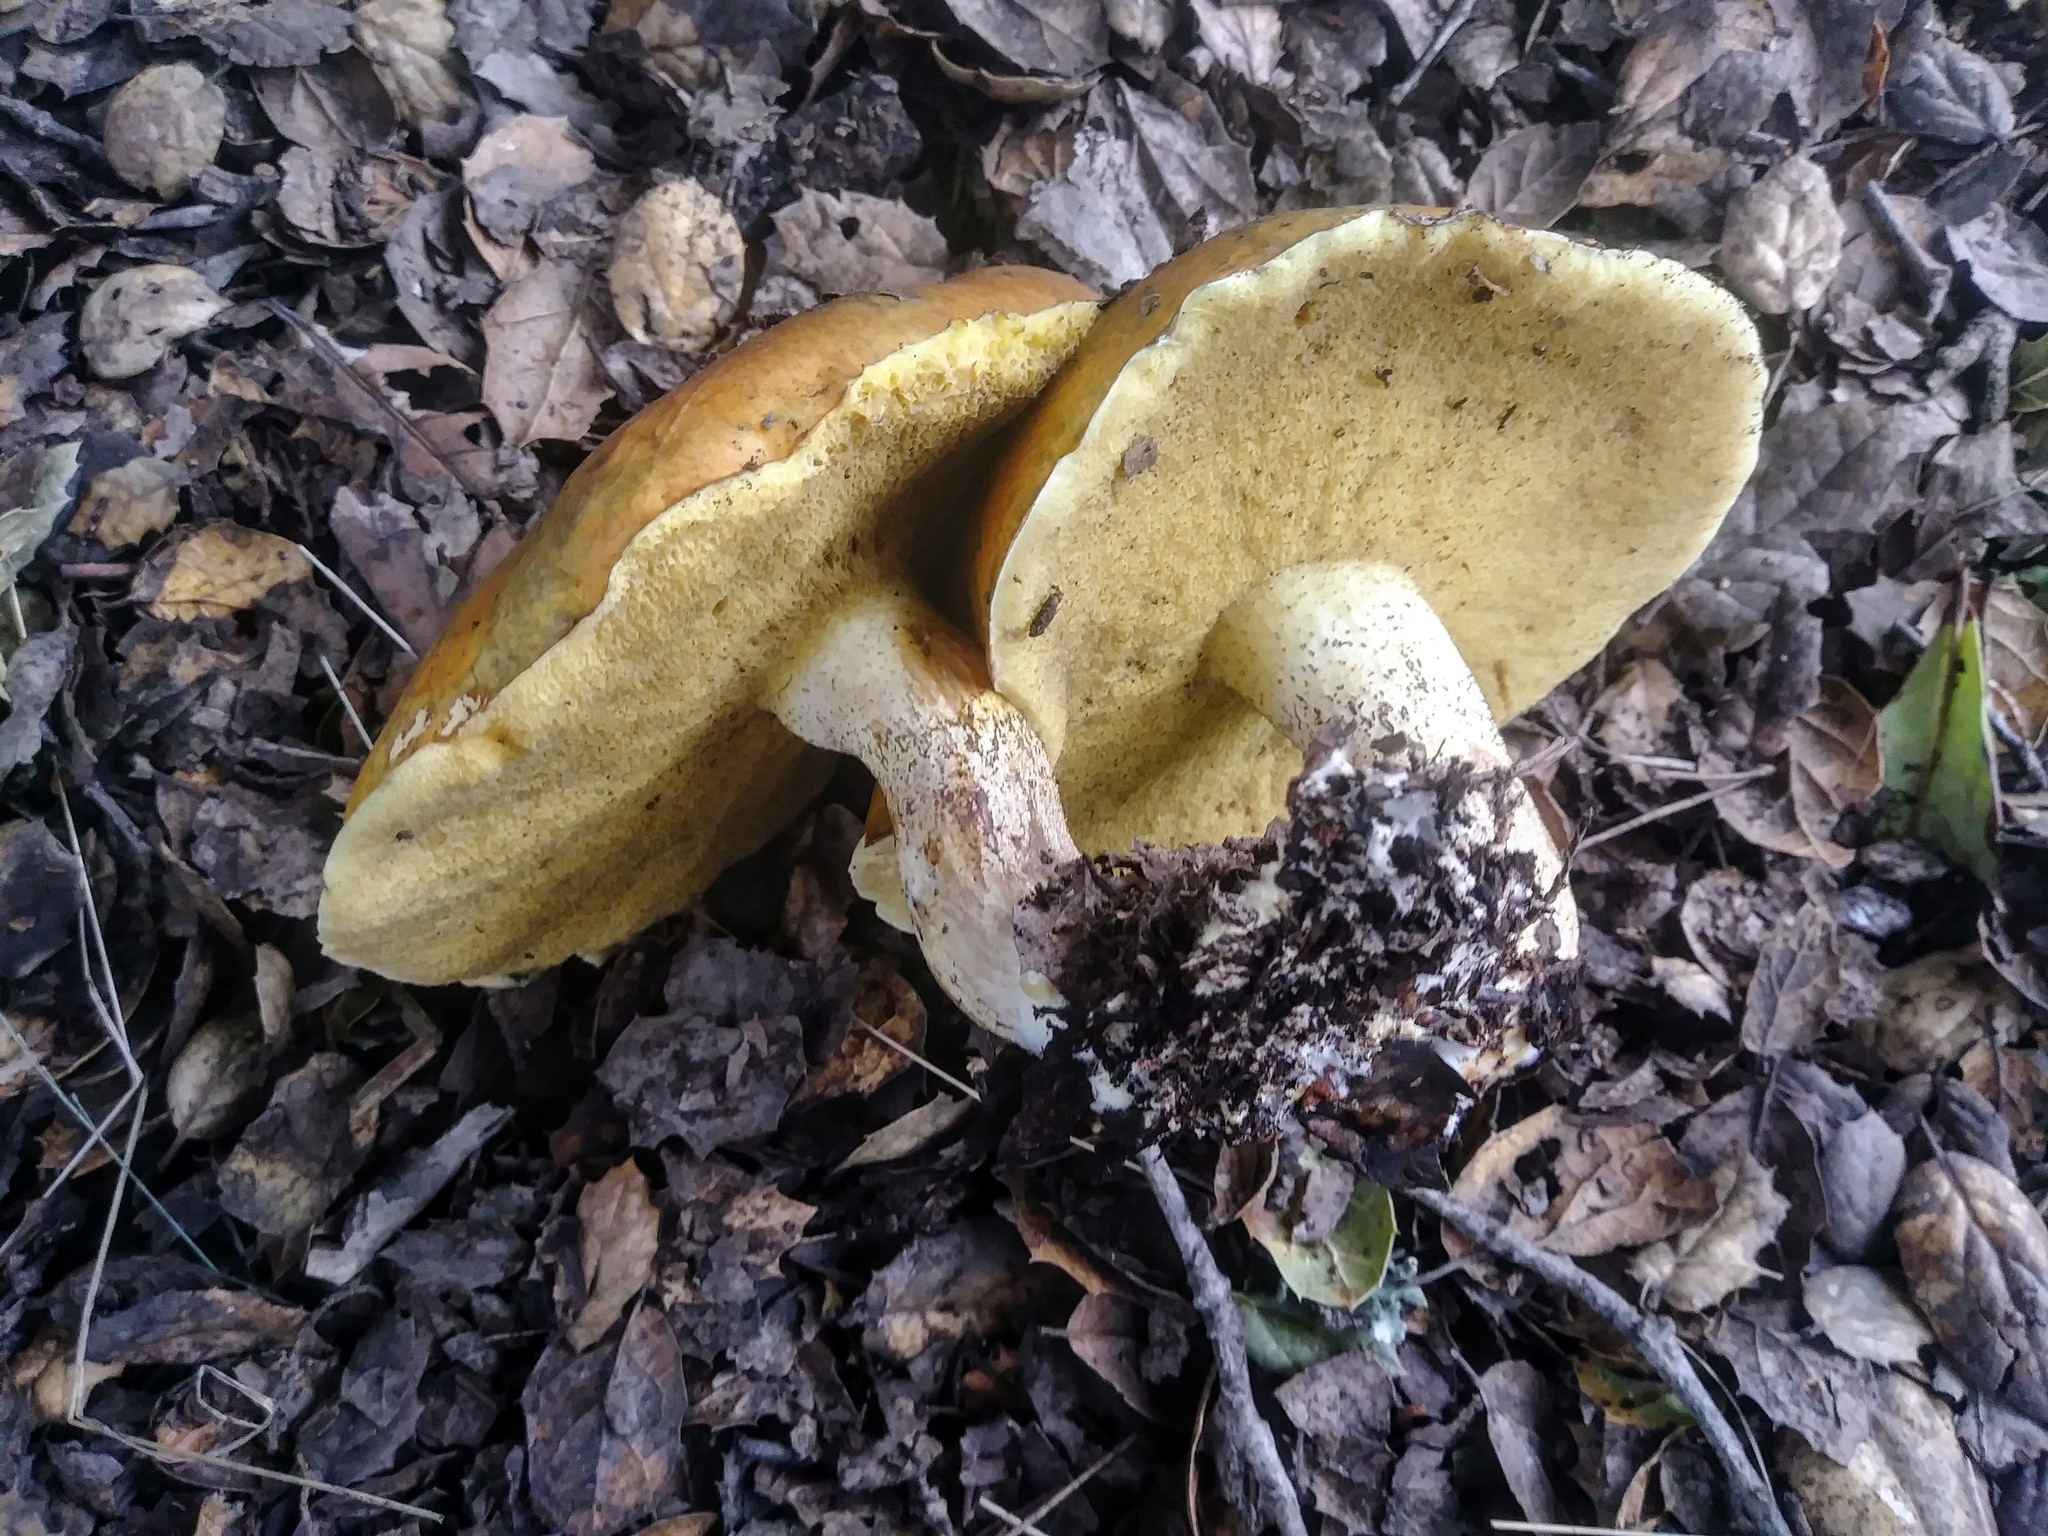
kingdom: Fungi
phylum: Basidiomycota
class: Agaricomycetes
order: Boletales
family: Suillaceae
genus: Suillus
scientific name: Suillus pungens
